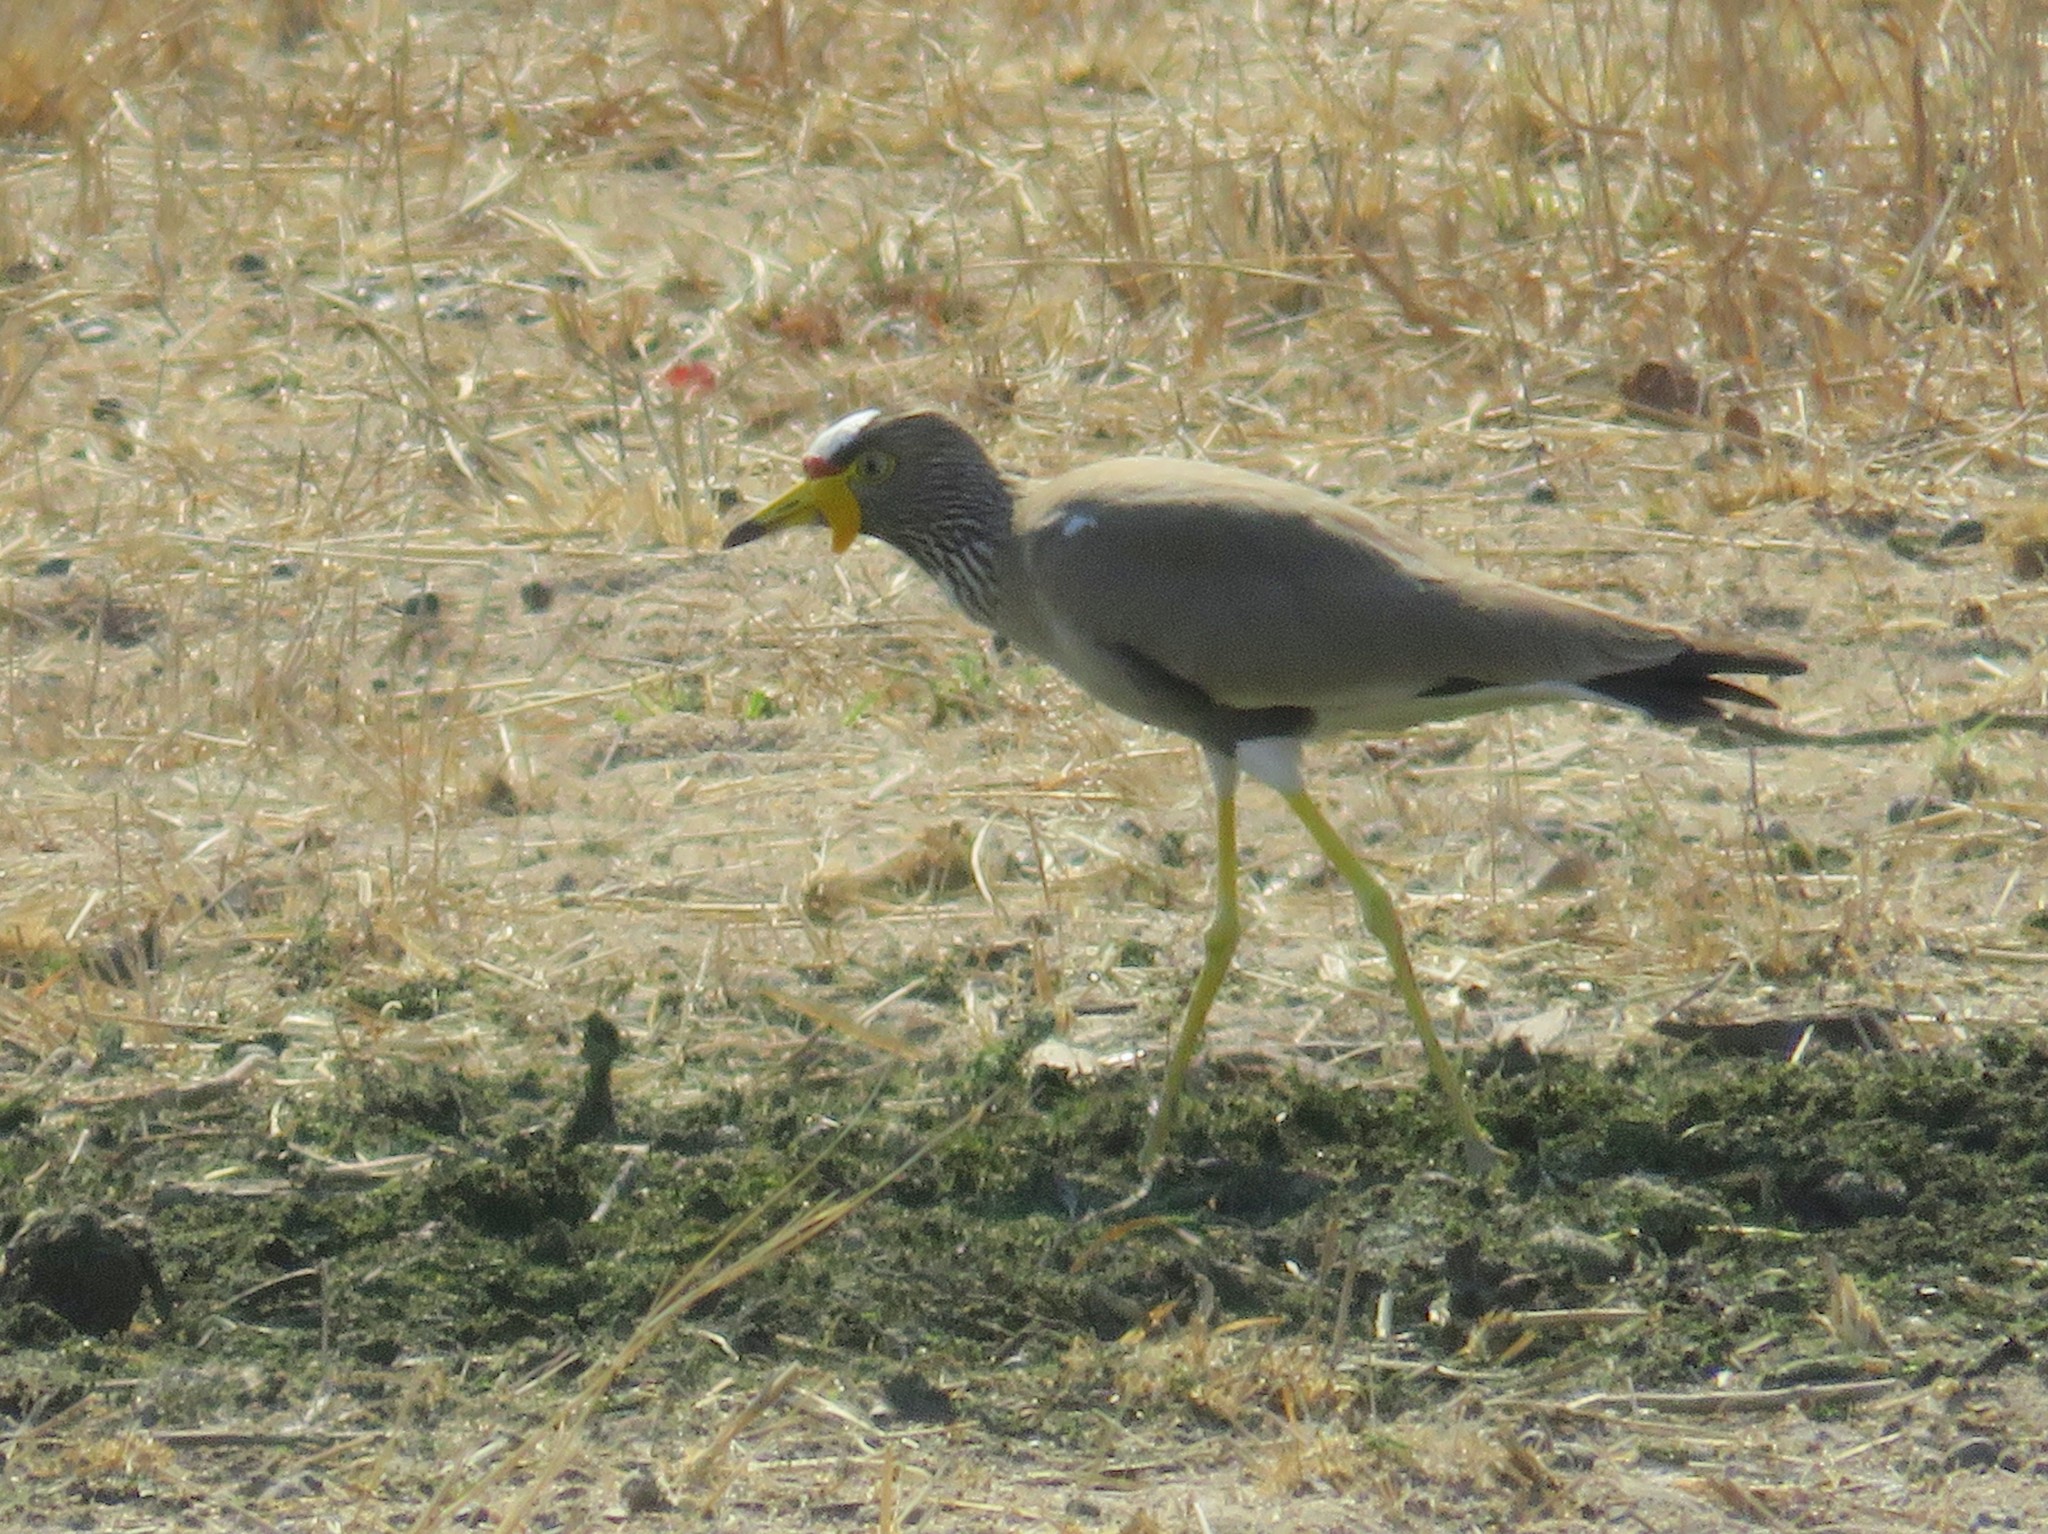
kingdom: Animalia
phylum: Chordata
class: Aves
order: Charadriiformes
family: Charadriidae
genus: Vanellus
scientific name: Vanellus senegallus
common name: African wattled lapwing
